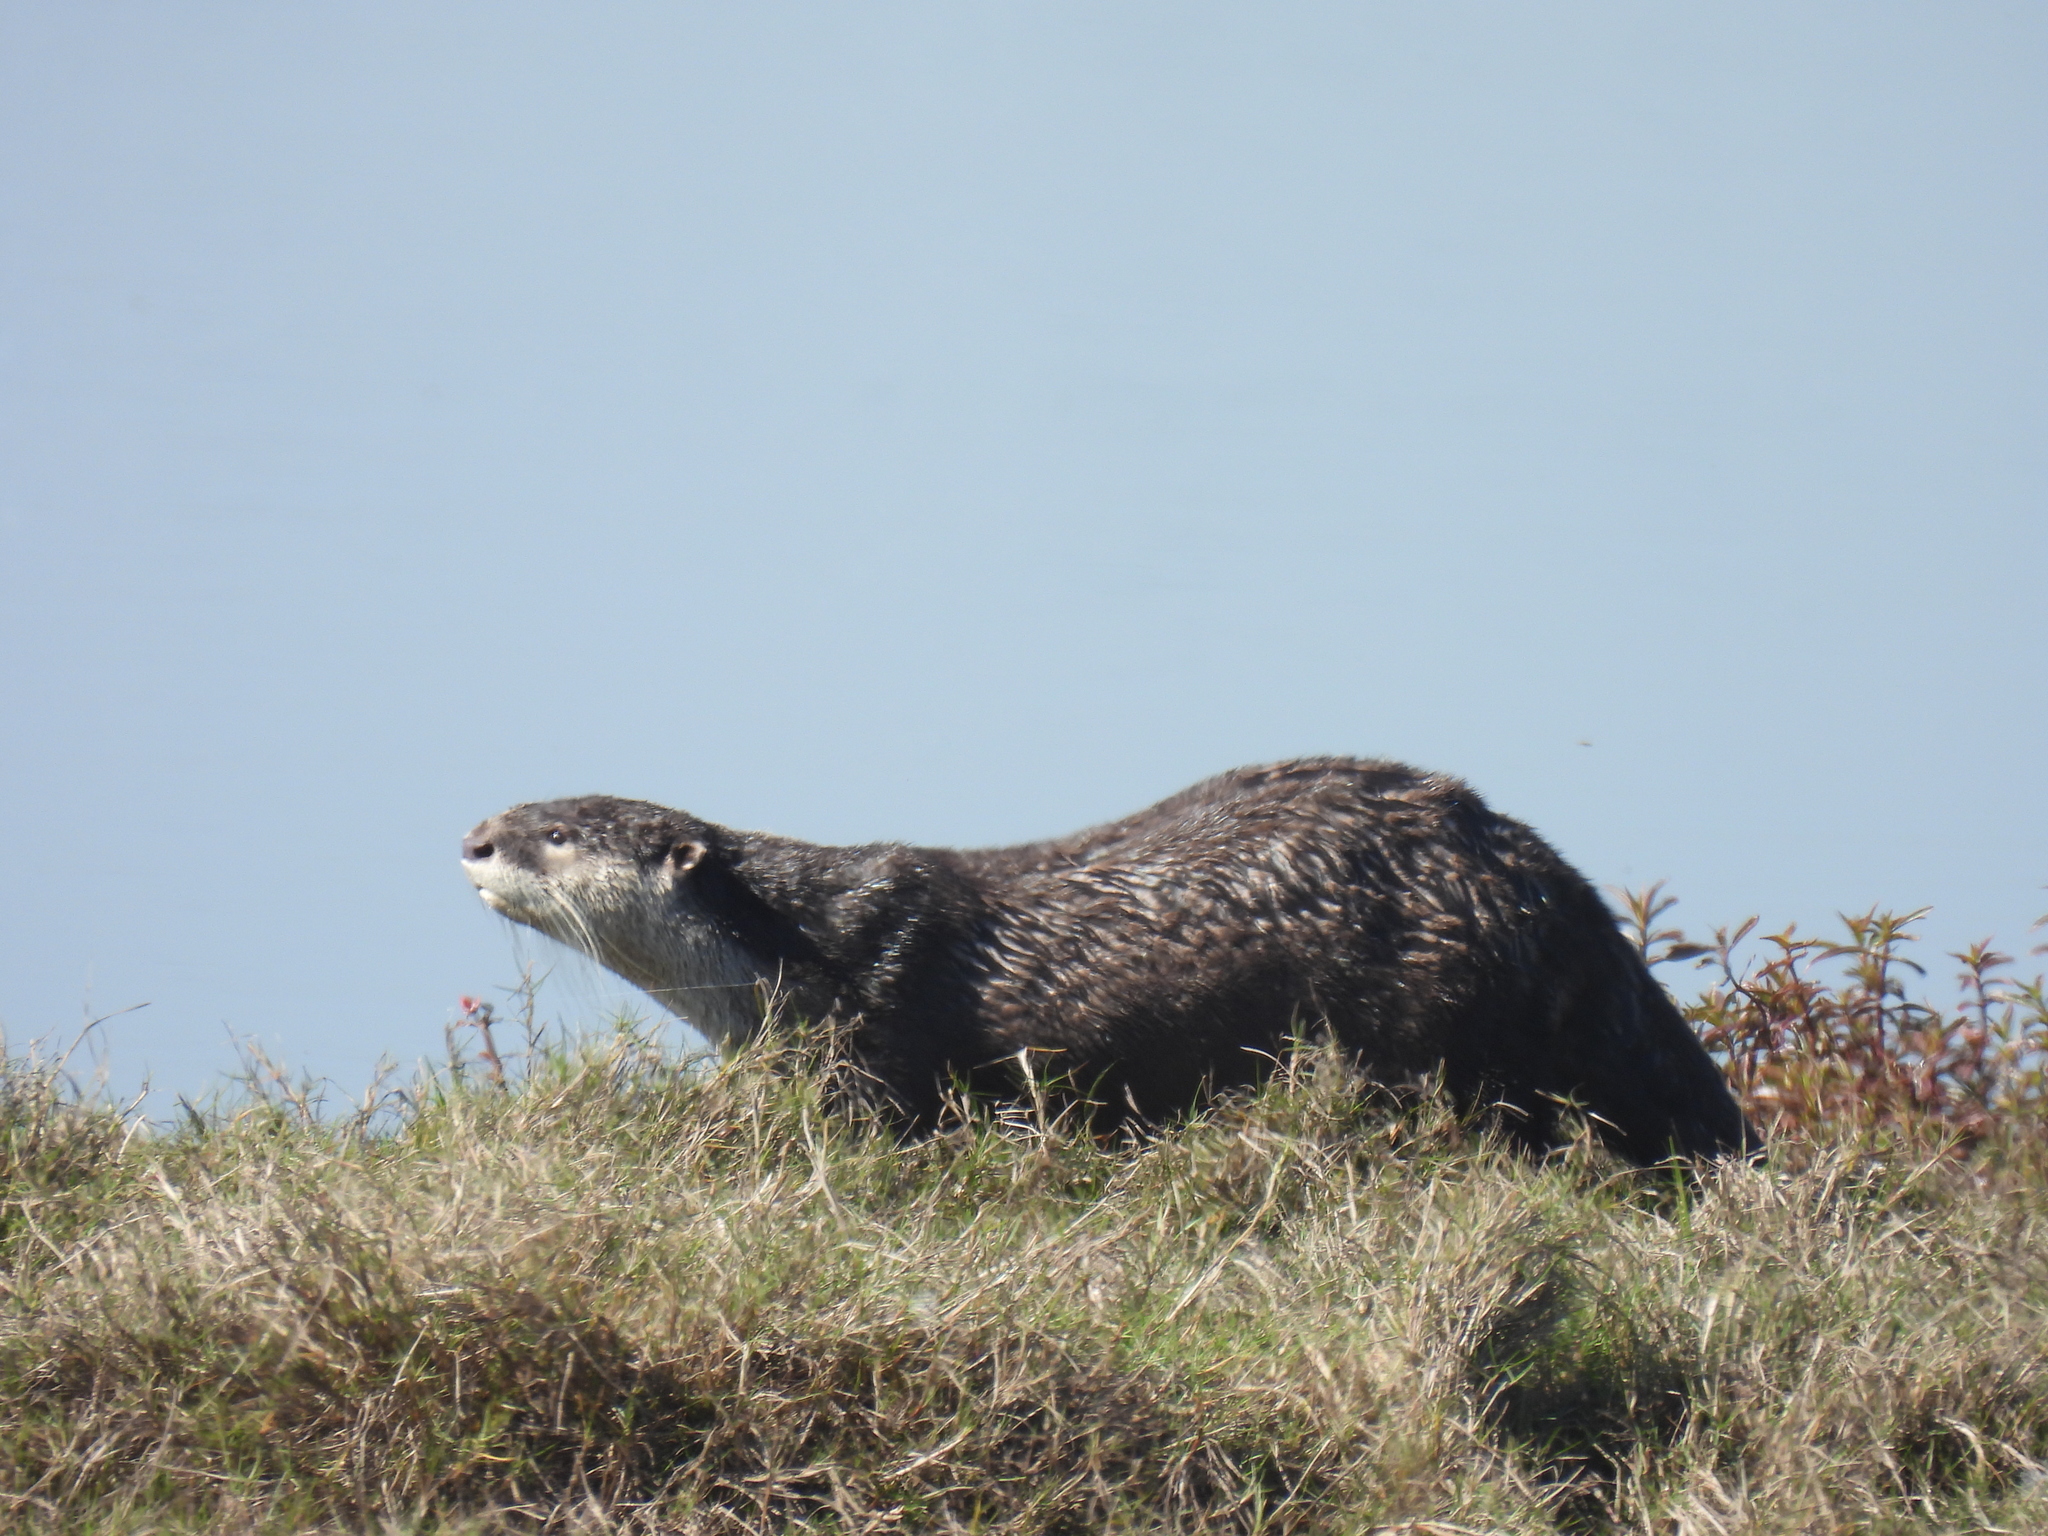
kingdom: Animalia
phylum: Chordata
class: Mammalia
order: Carnivora
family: Mustelidae
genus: Aonyx
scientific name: Aonyx capensis
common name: African clawless otter
